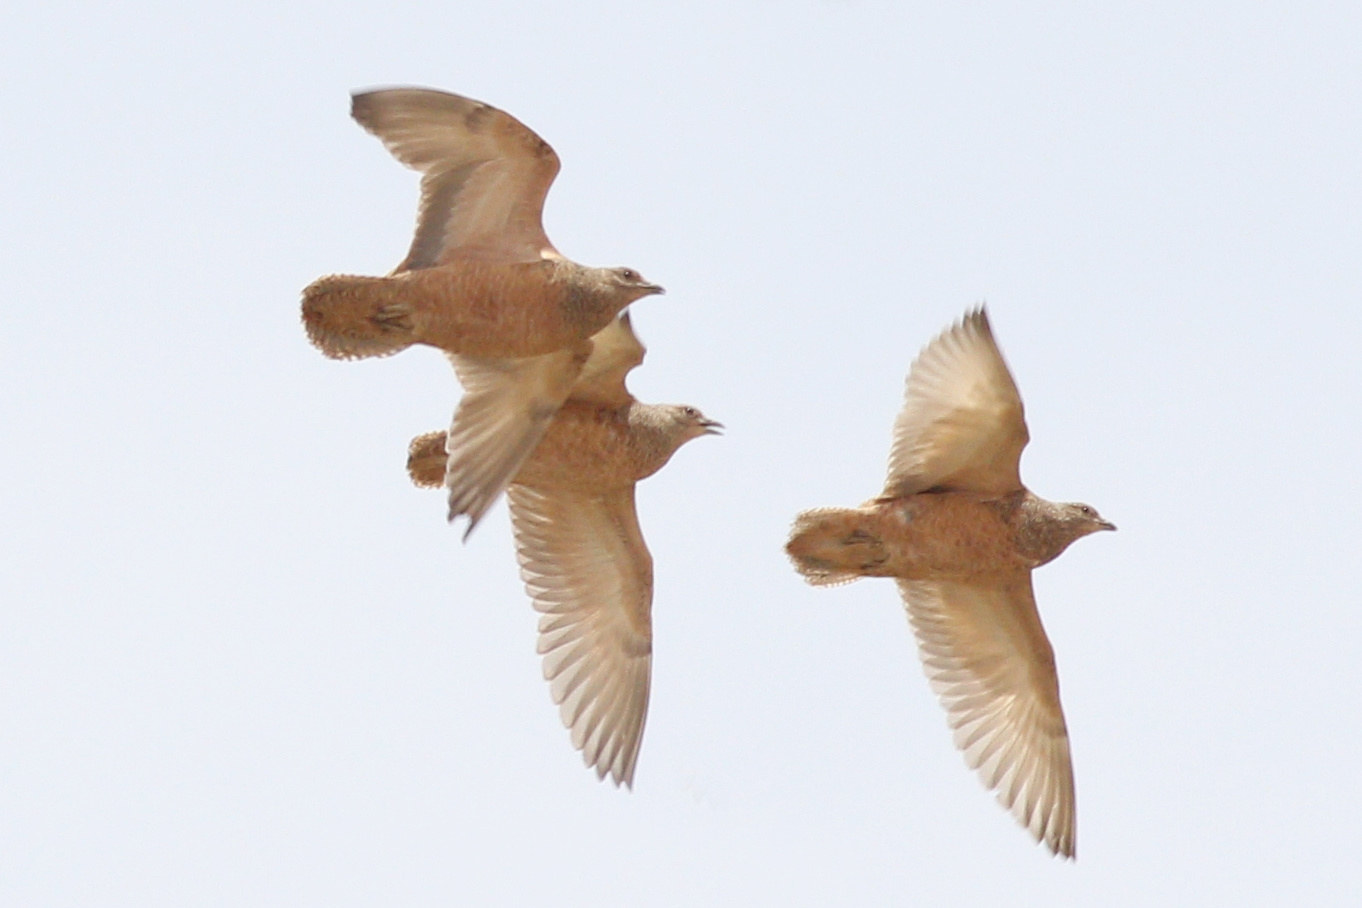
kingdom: Animalia
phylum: Chordata
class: Aves
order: Charadriiformes
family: Thinocoridae
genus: Attagis
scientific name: Attagis gayi
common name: Rufous-bellied seedsnipe
